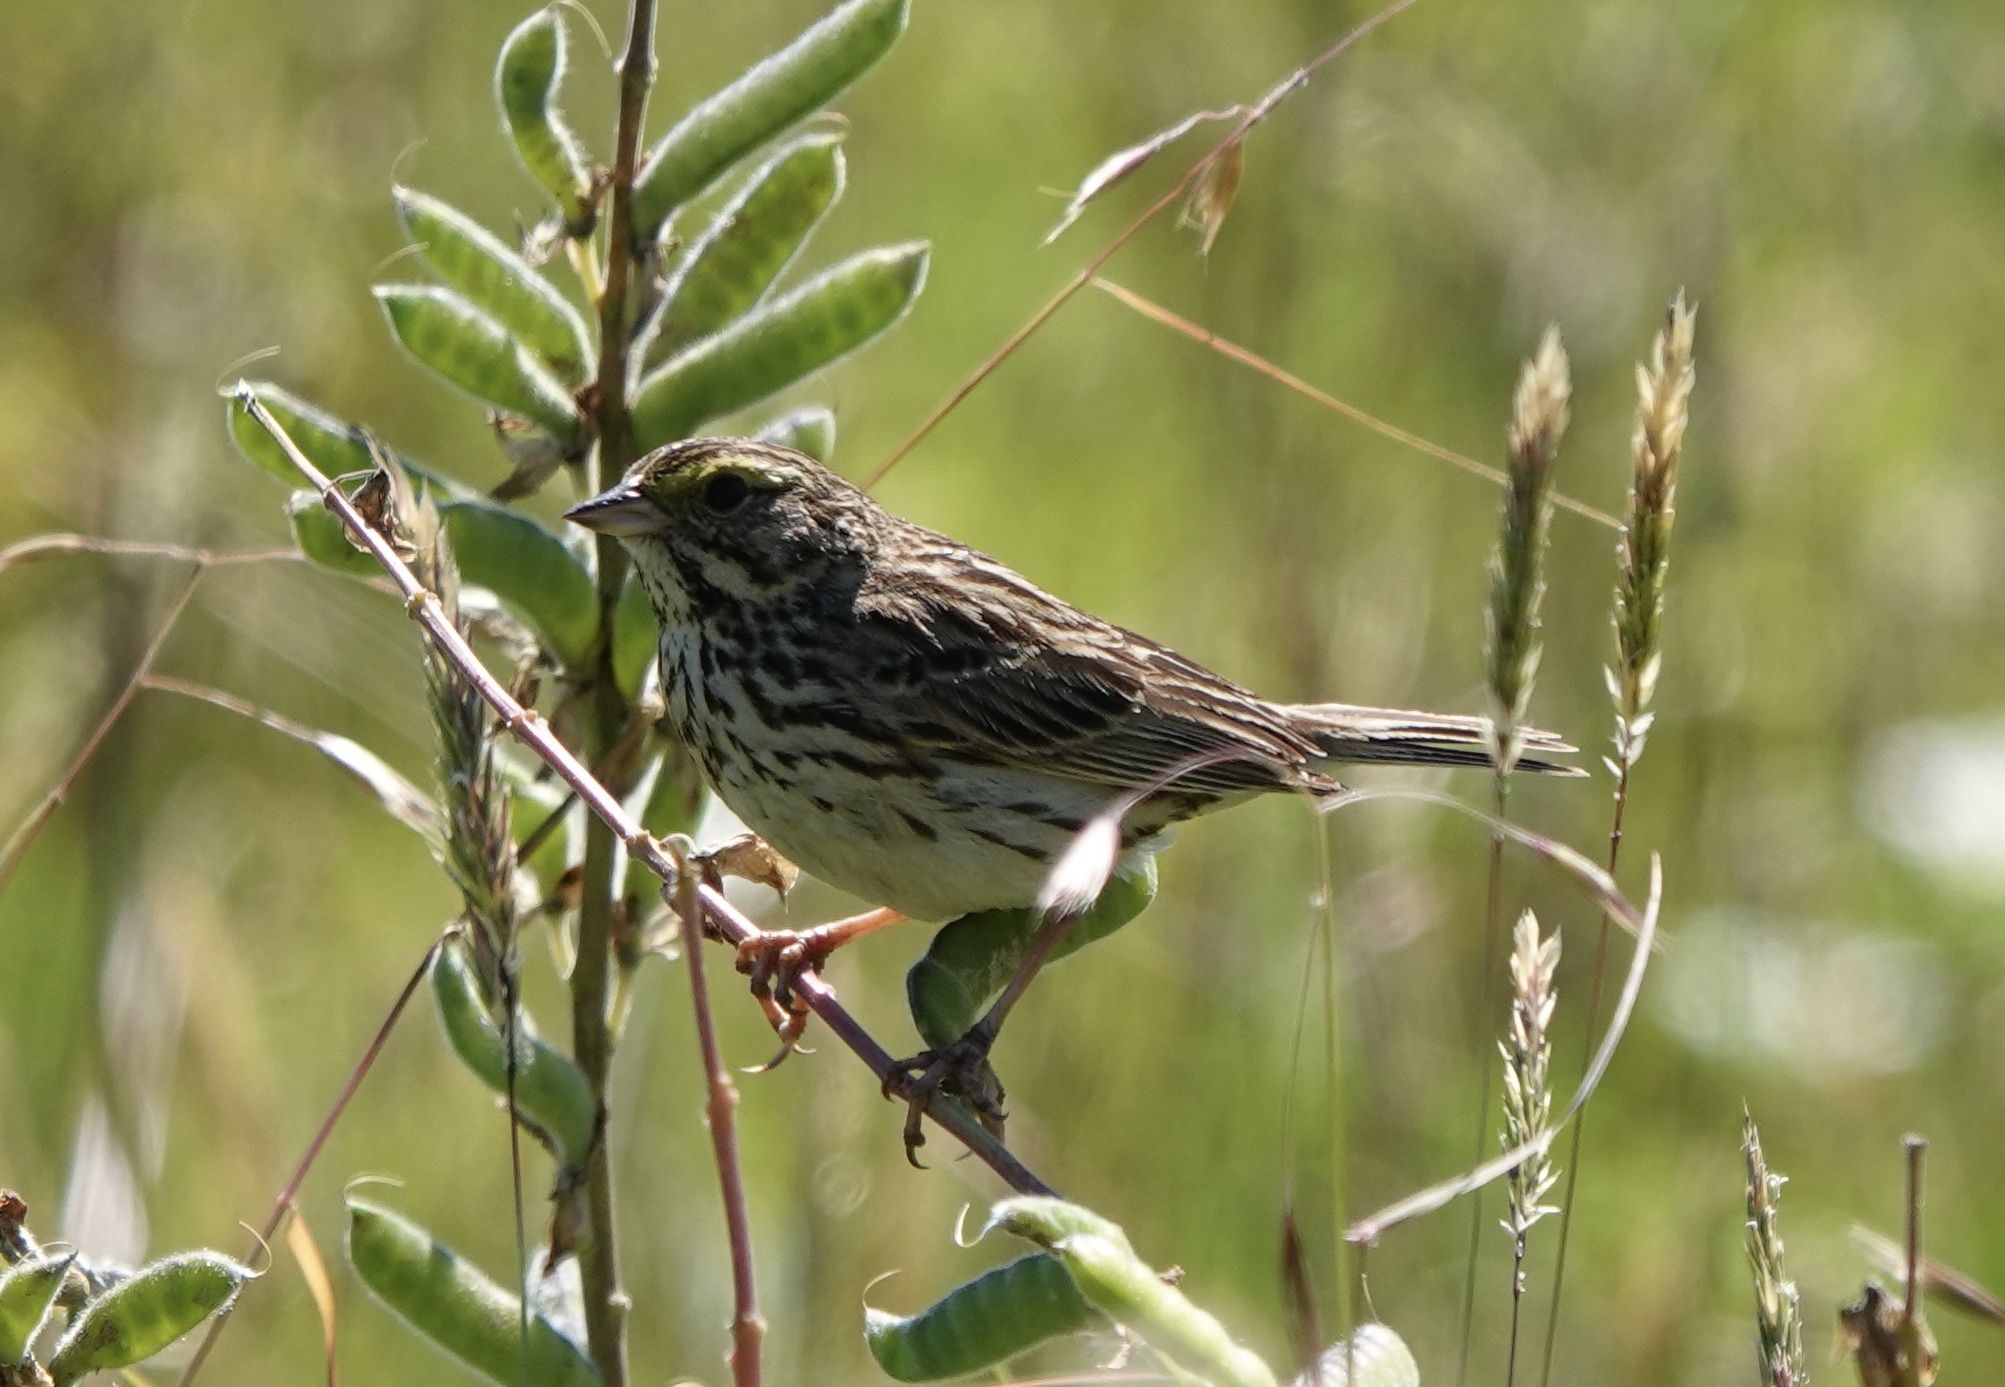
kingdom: Animalia
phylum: Chordata
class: Aves
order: Passeriformes
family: Passerellidae
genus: Passerculus
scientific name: Passerculus sandwichensis
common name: Savannah sparrow
